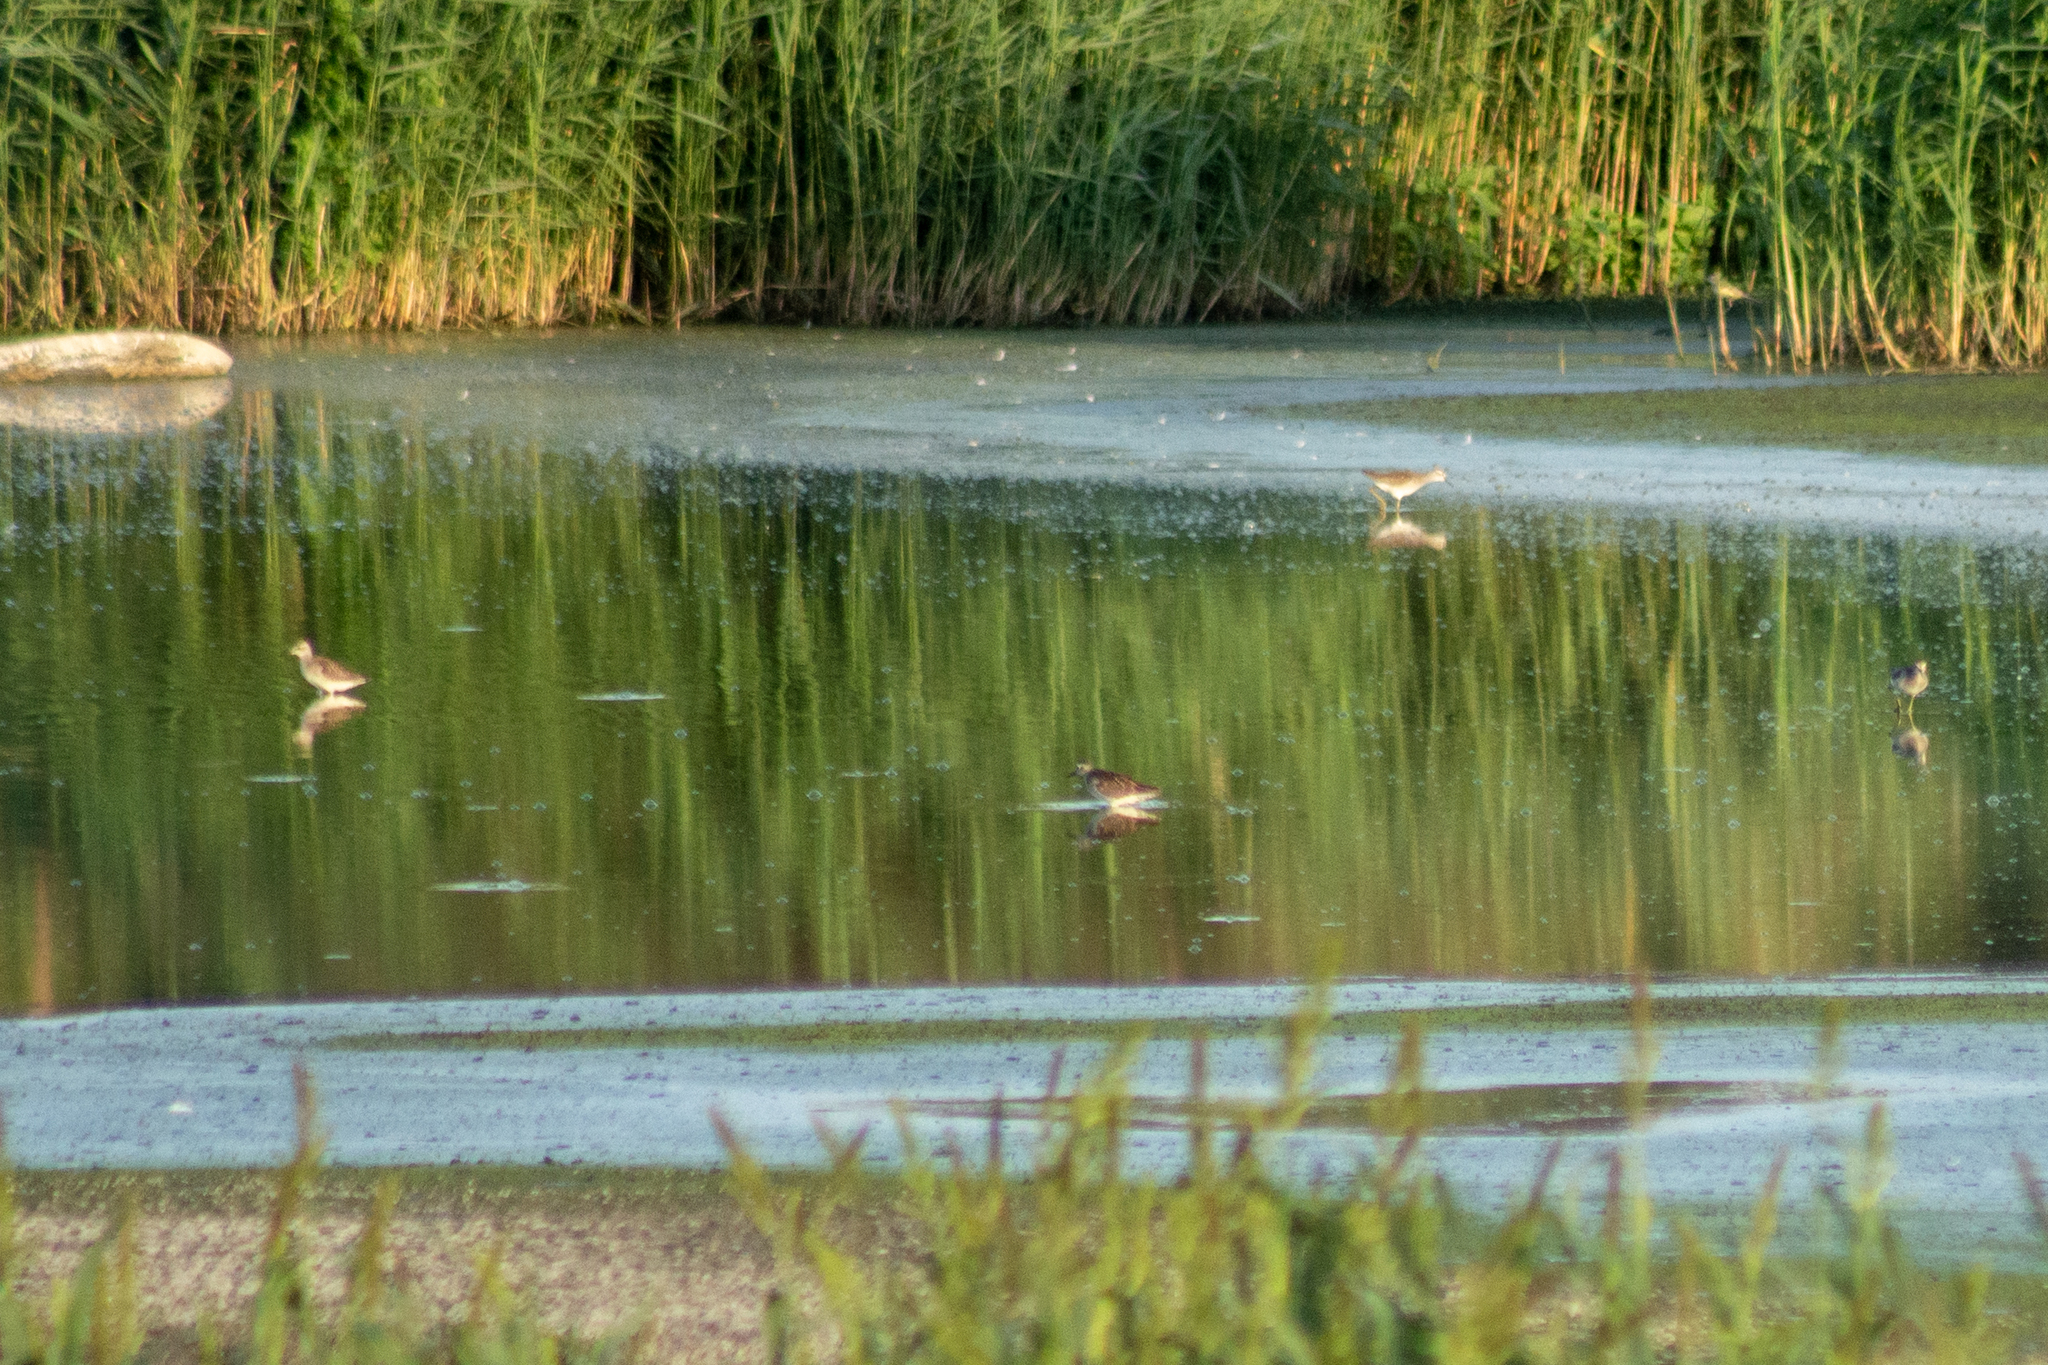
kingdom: Animalia
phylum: Chordata
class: Aves
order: Charadriiformes
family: Scolopacidae
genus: Tringa
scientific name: Tringa glareola
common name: Wood sandpiper
